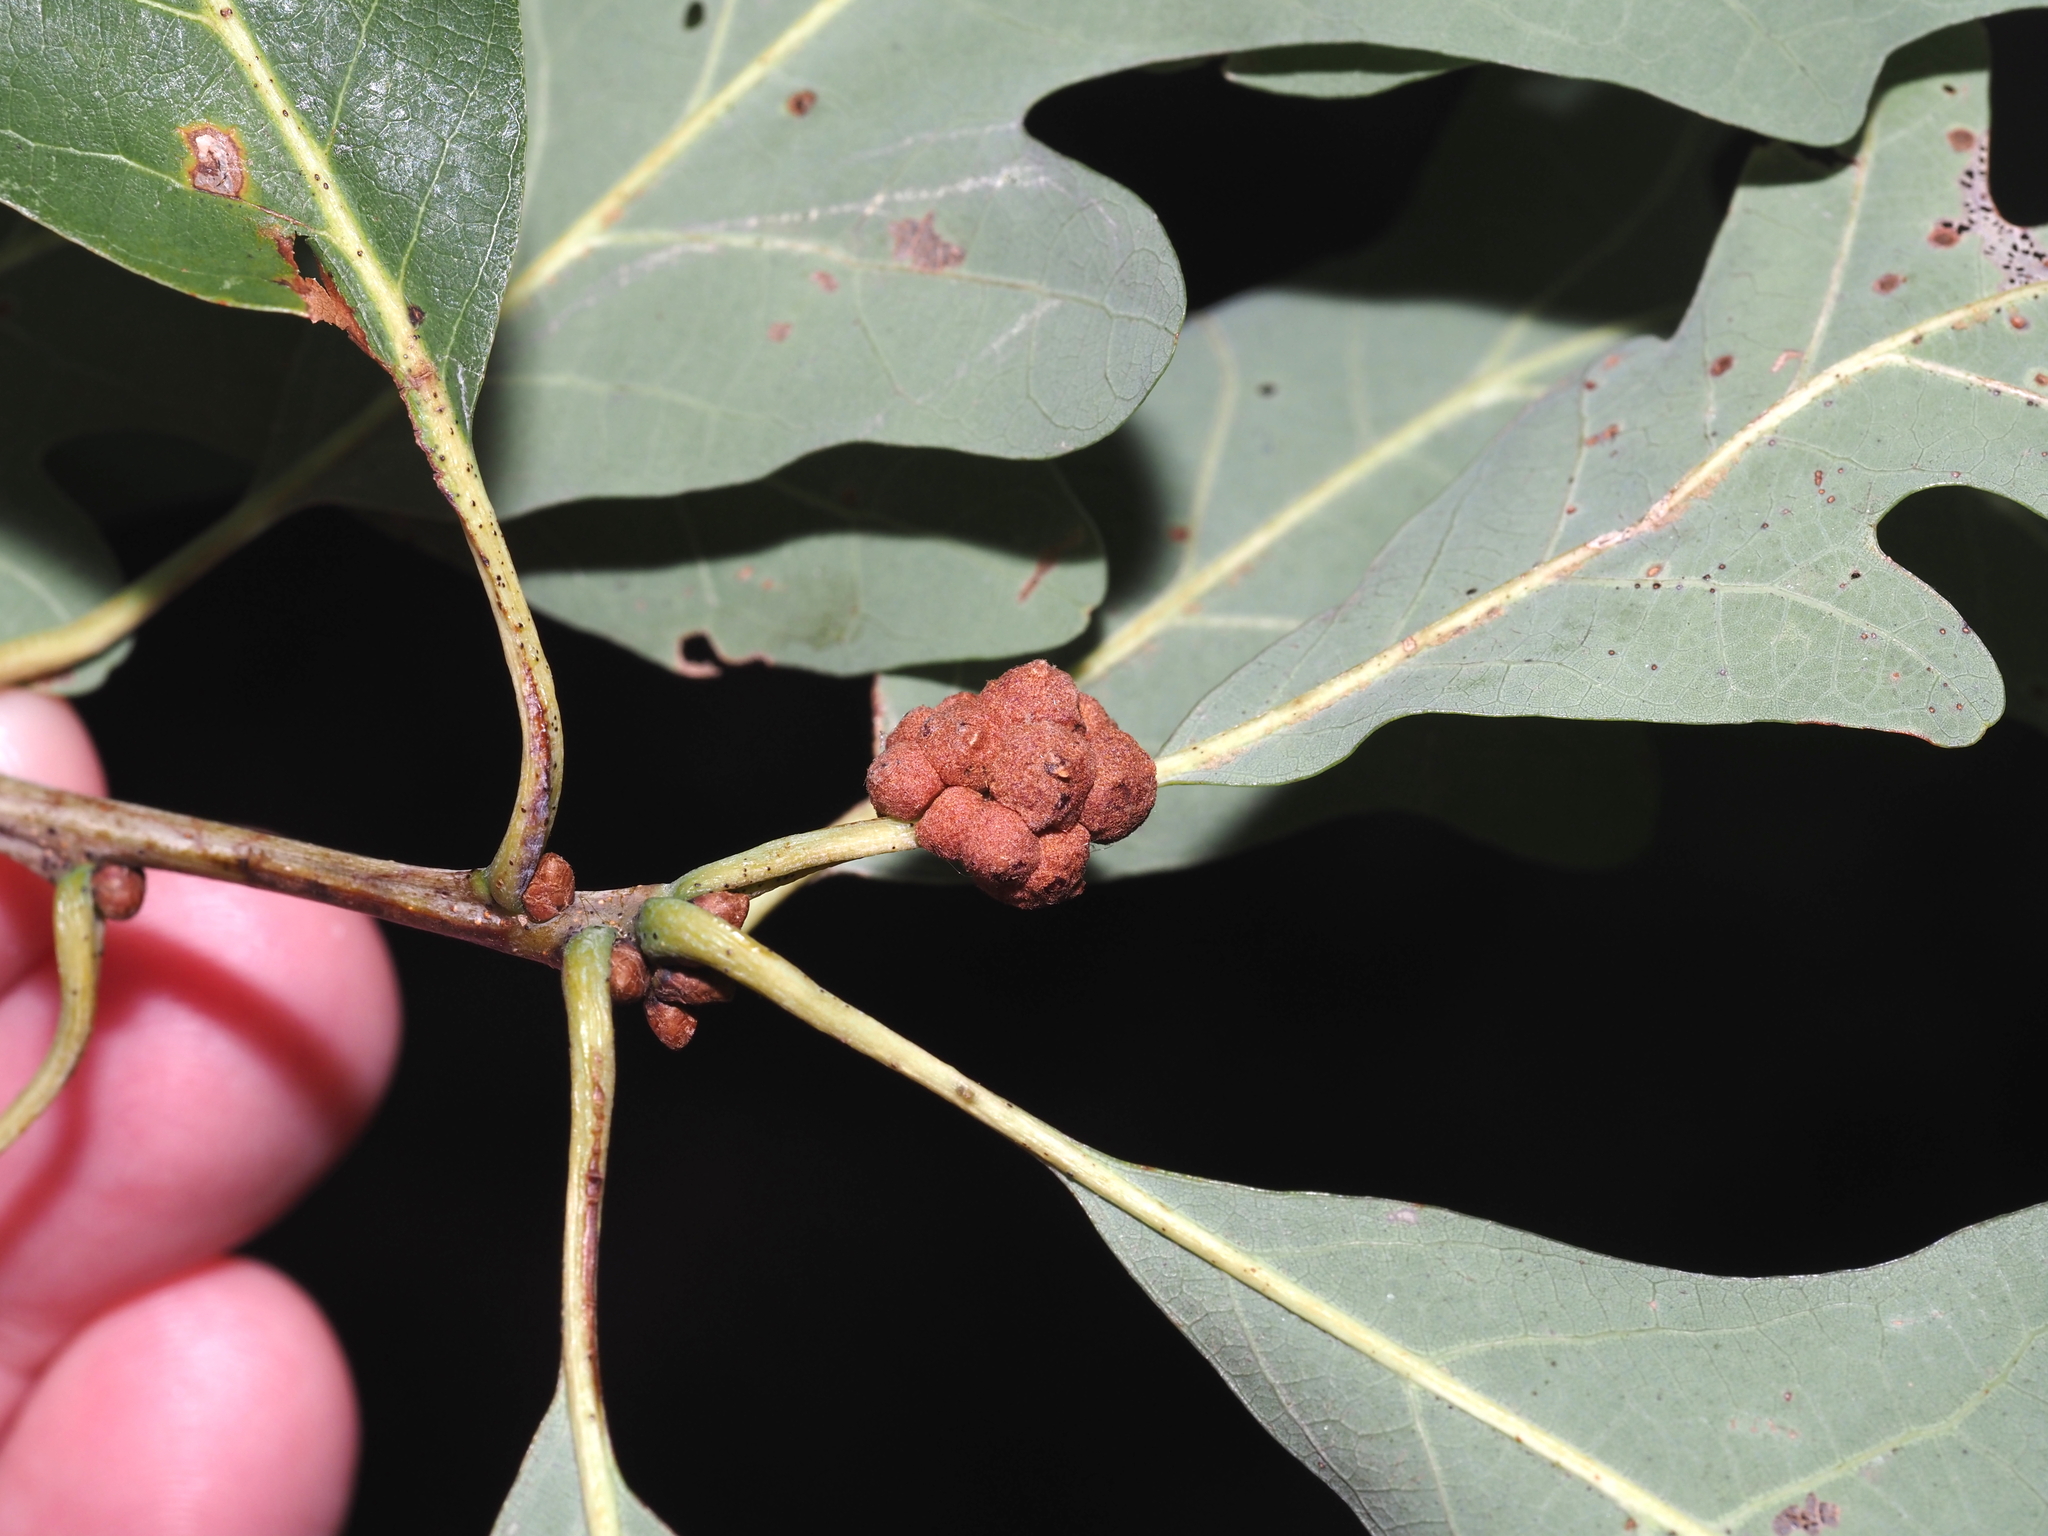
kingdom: Animalia
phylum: Arthropoda
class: Insecta
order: Hymenoptera
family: Cynipidae
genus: Andricus
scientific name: Andricus
